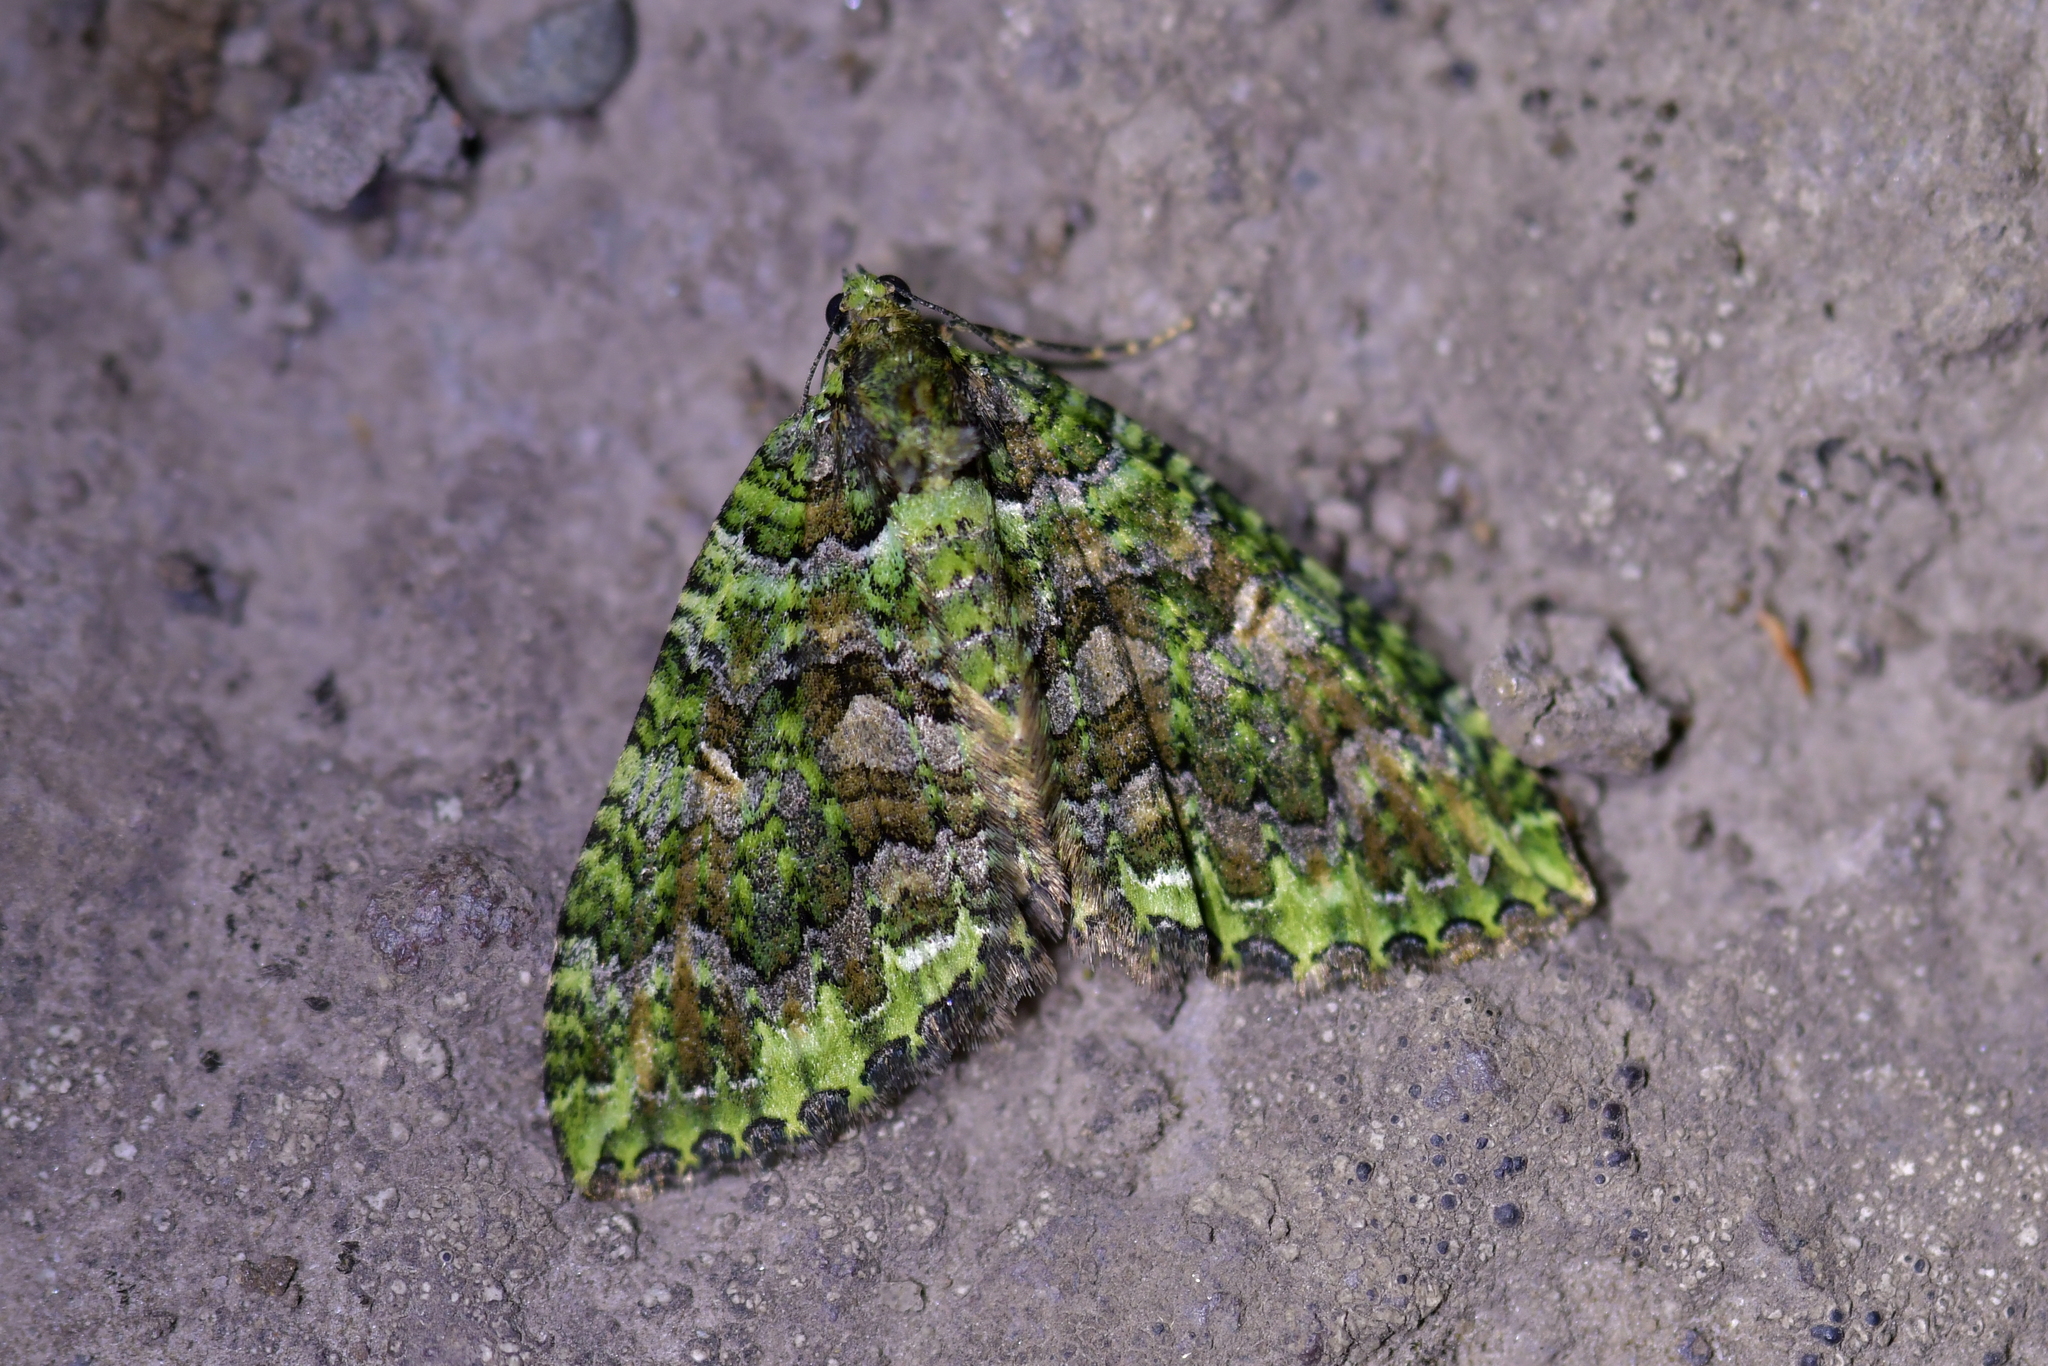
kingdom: Animalia
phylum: Arthropoda
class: Insecta
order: Lepidoptera
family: Geometridae
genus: Austrocidaria
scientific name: Austrocidaria similata
